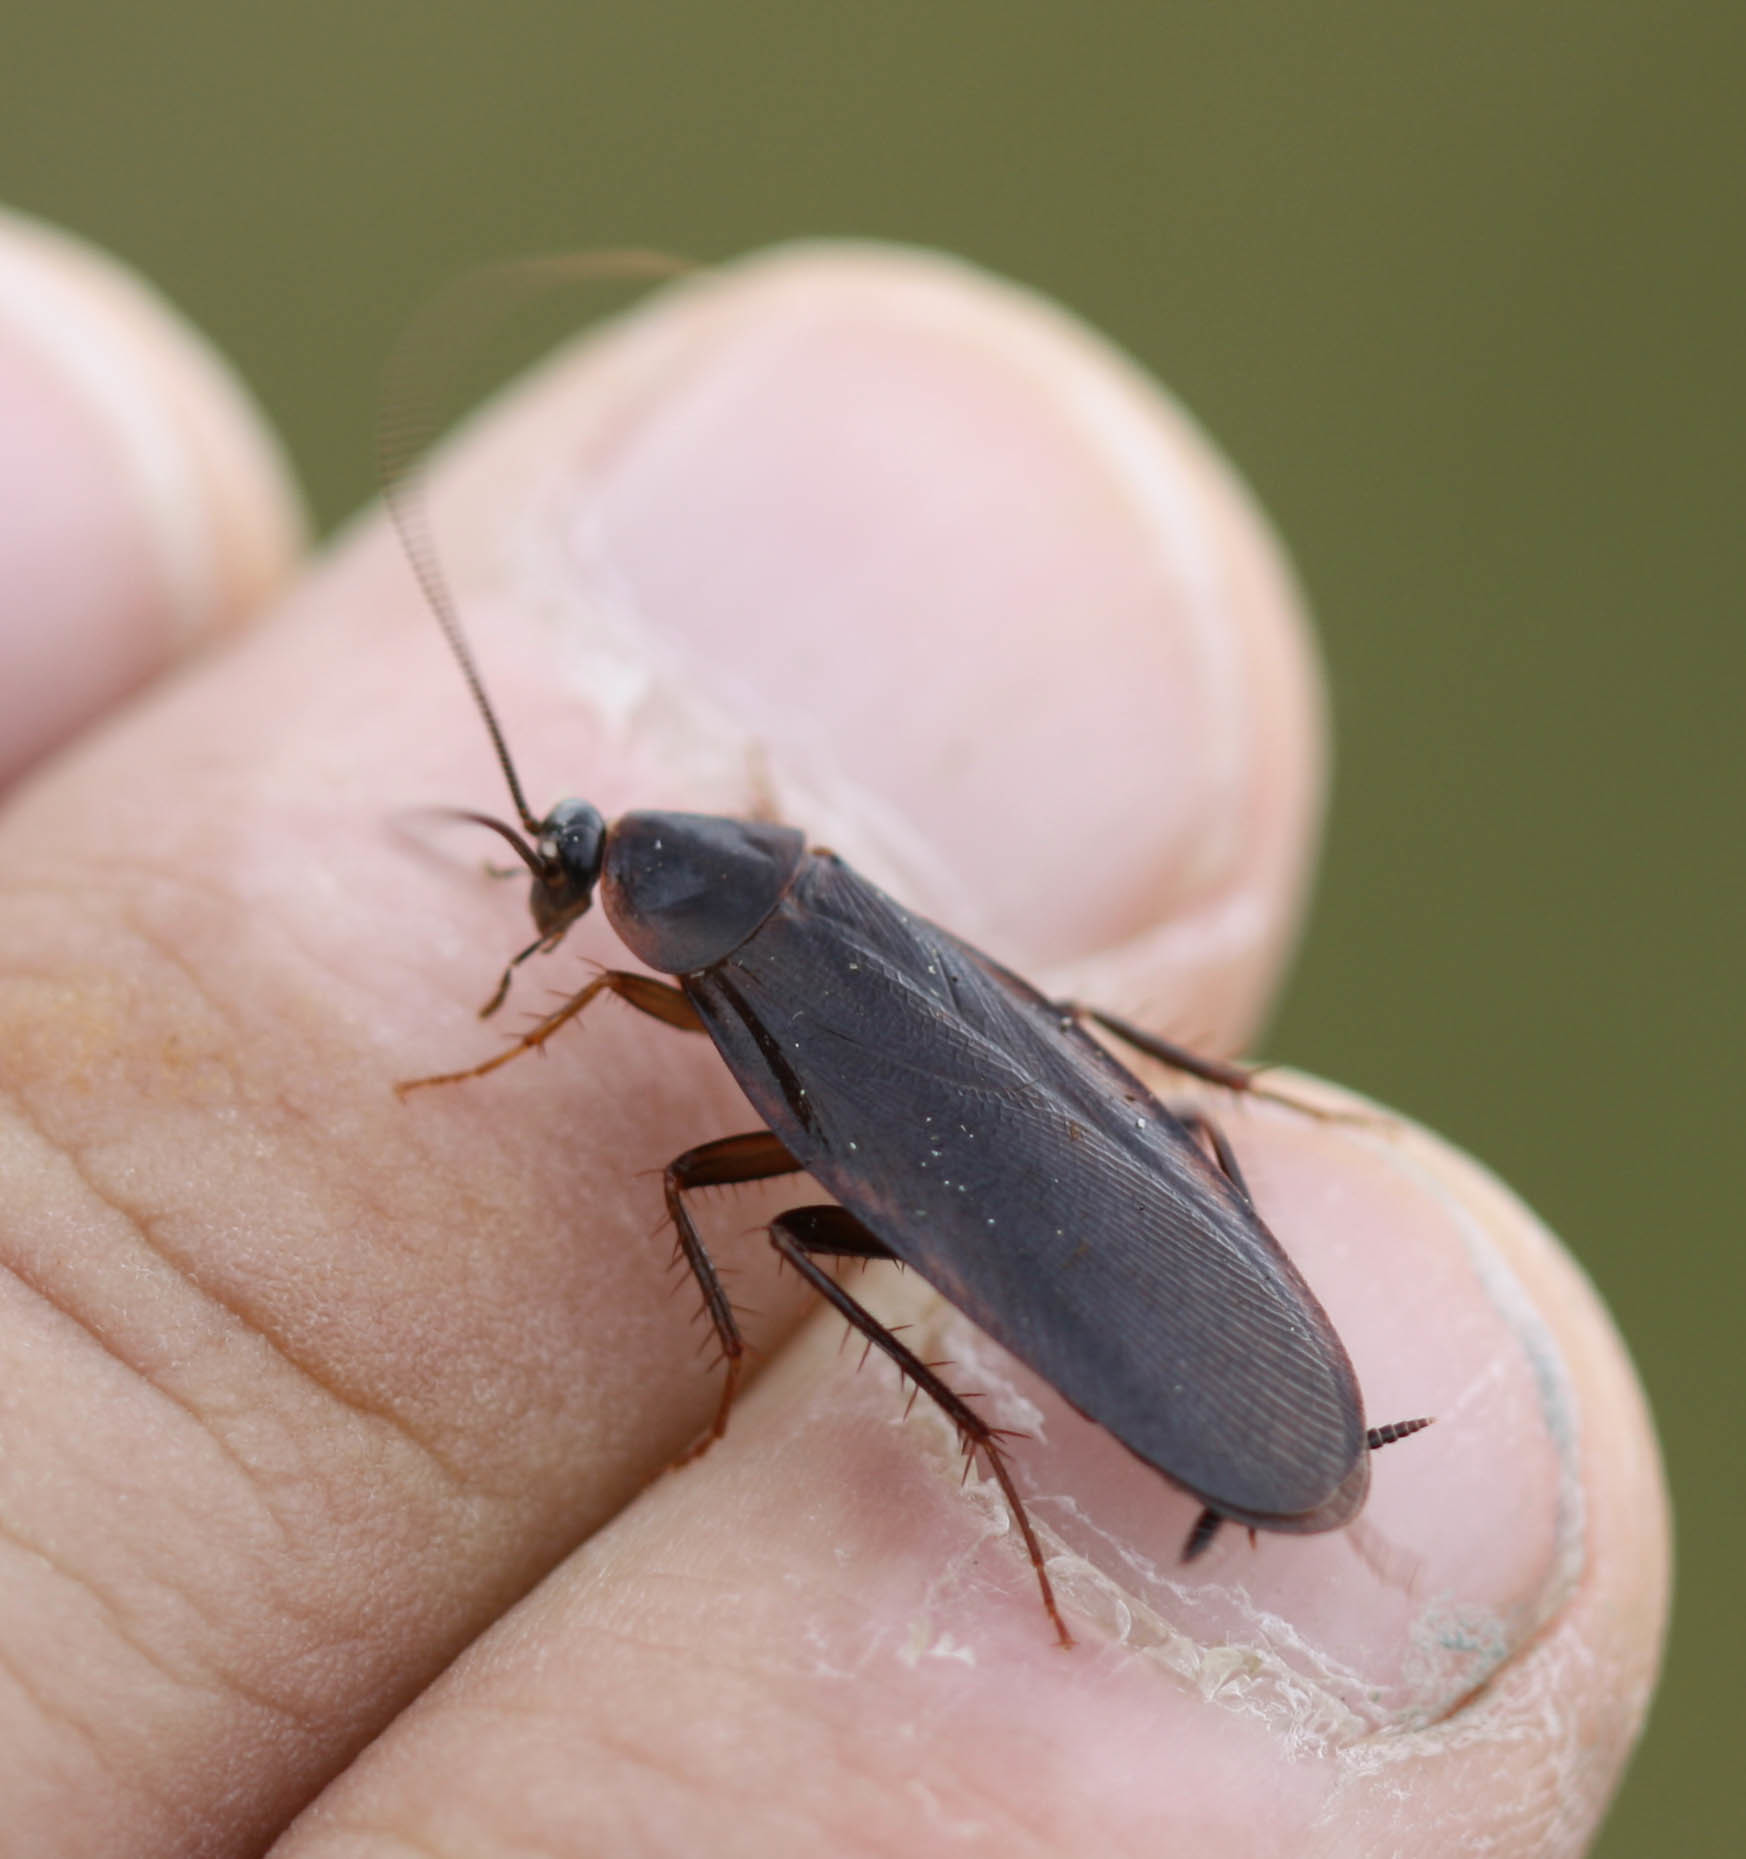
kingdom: Animalia
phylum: Arthropoda
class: Insecta
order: Blattodea
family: Ectobiidae
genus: Parcoblatta
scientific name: Parcoblatta americana
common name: Western wood cockroach
